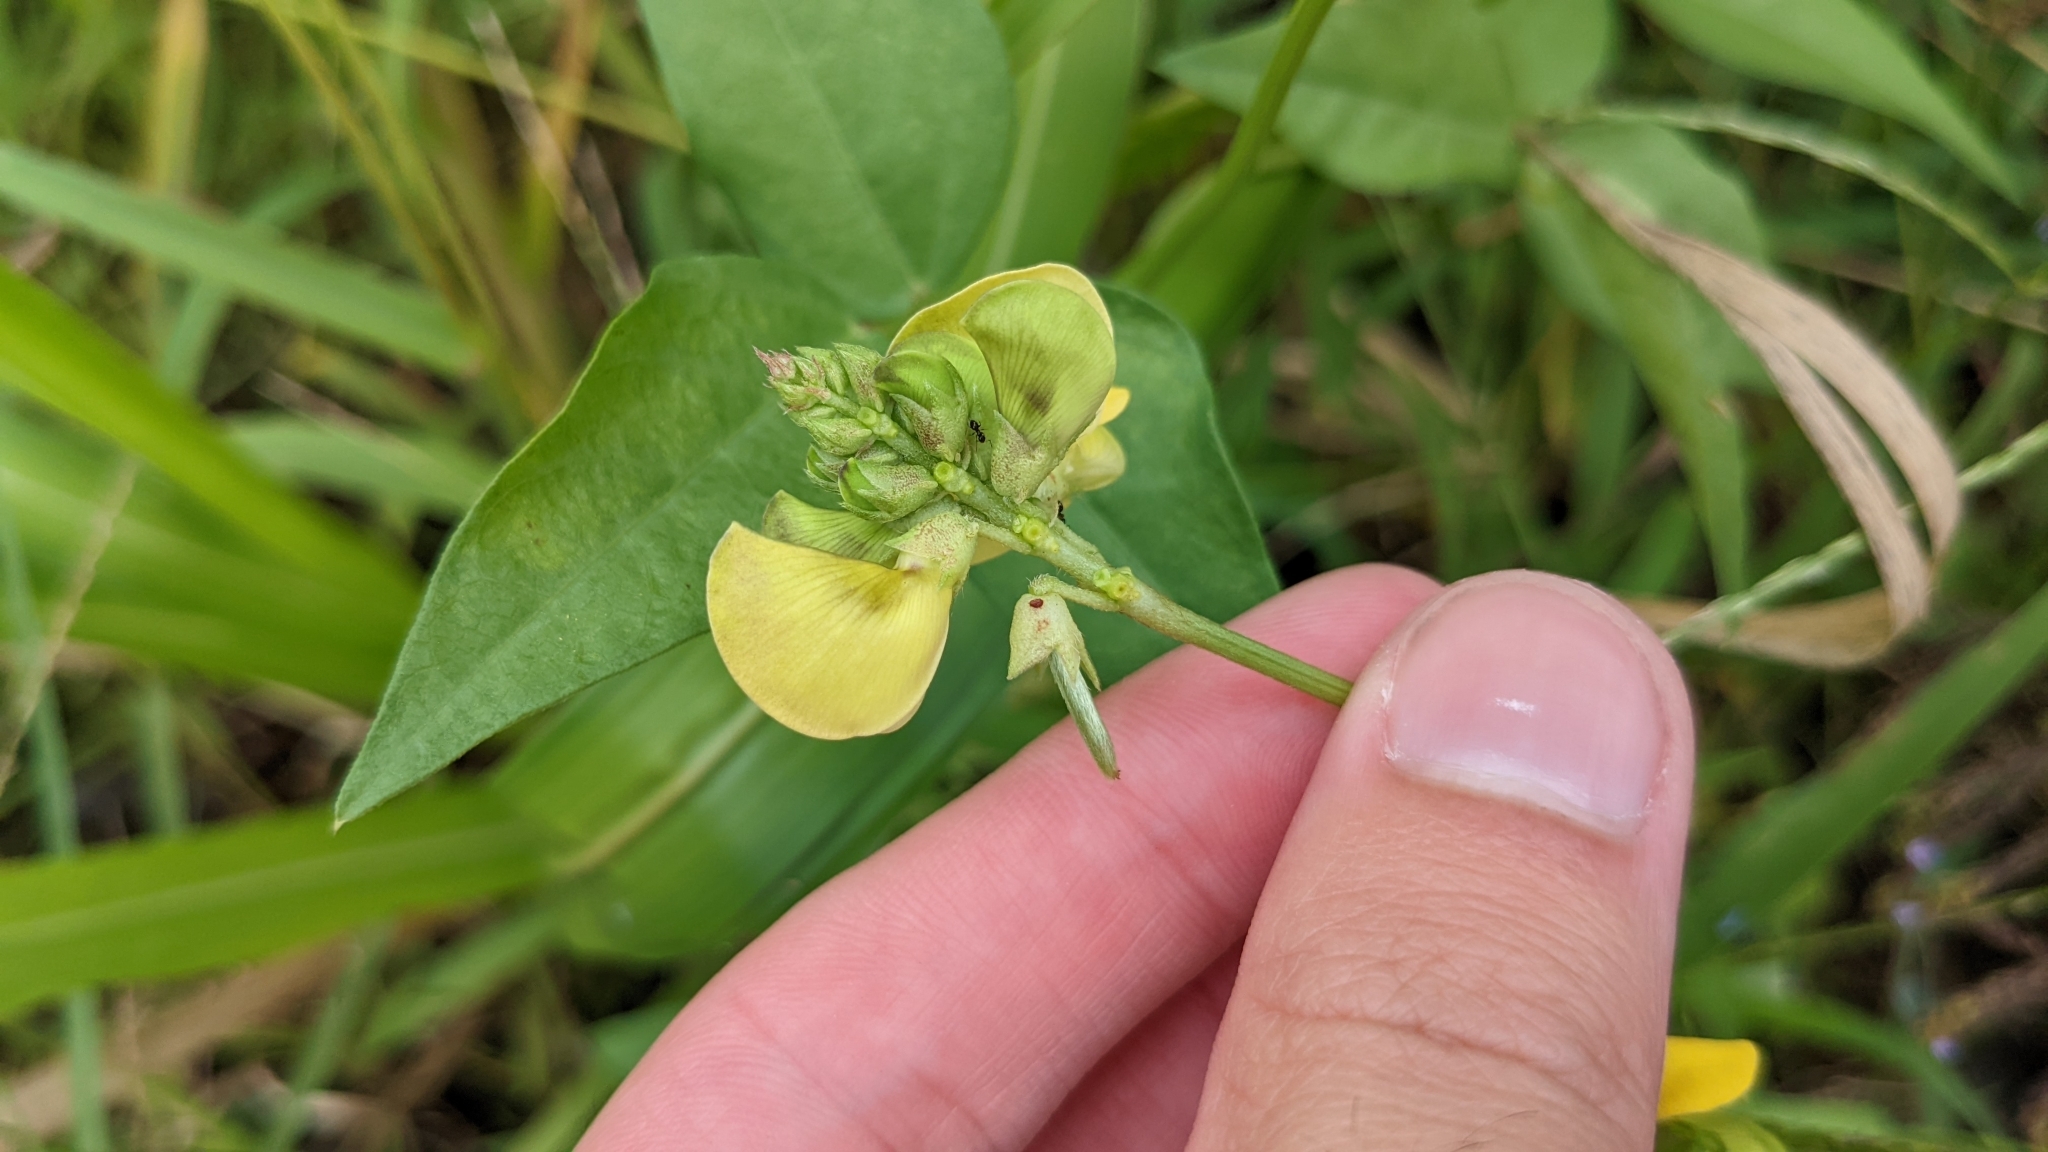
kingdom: Plantae
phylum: Tracheophyta
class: Magnoliopsida
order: Fabales
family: Fabaceae
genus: Vigna
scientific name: Vigna luteola
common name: Hairypod cowpea
